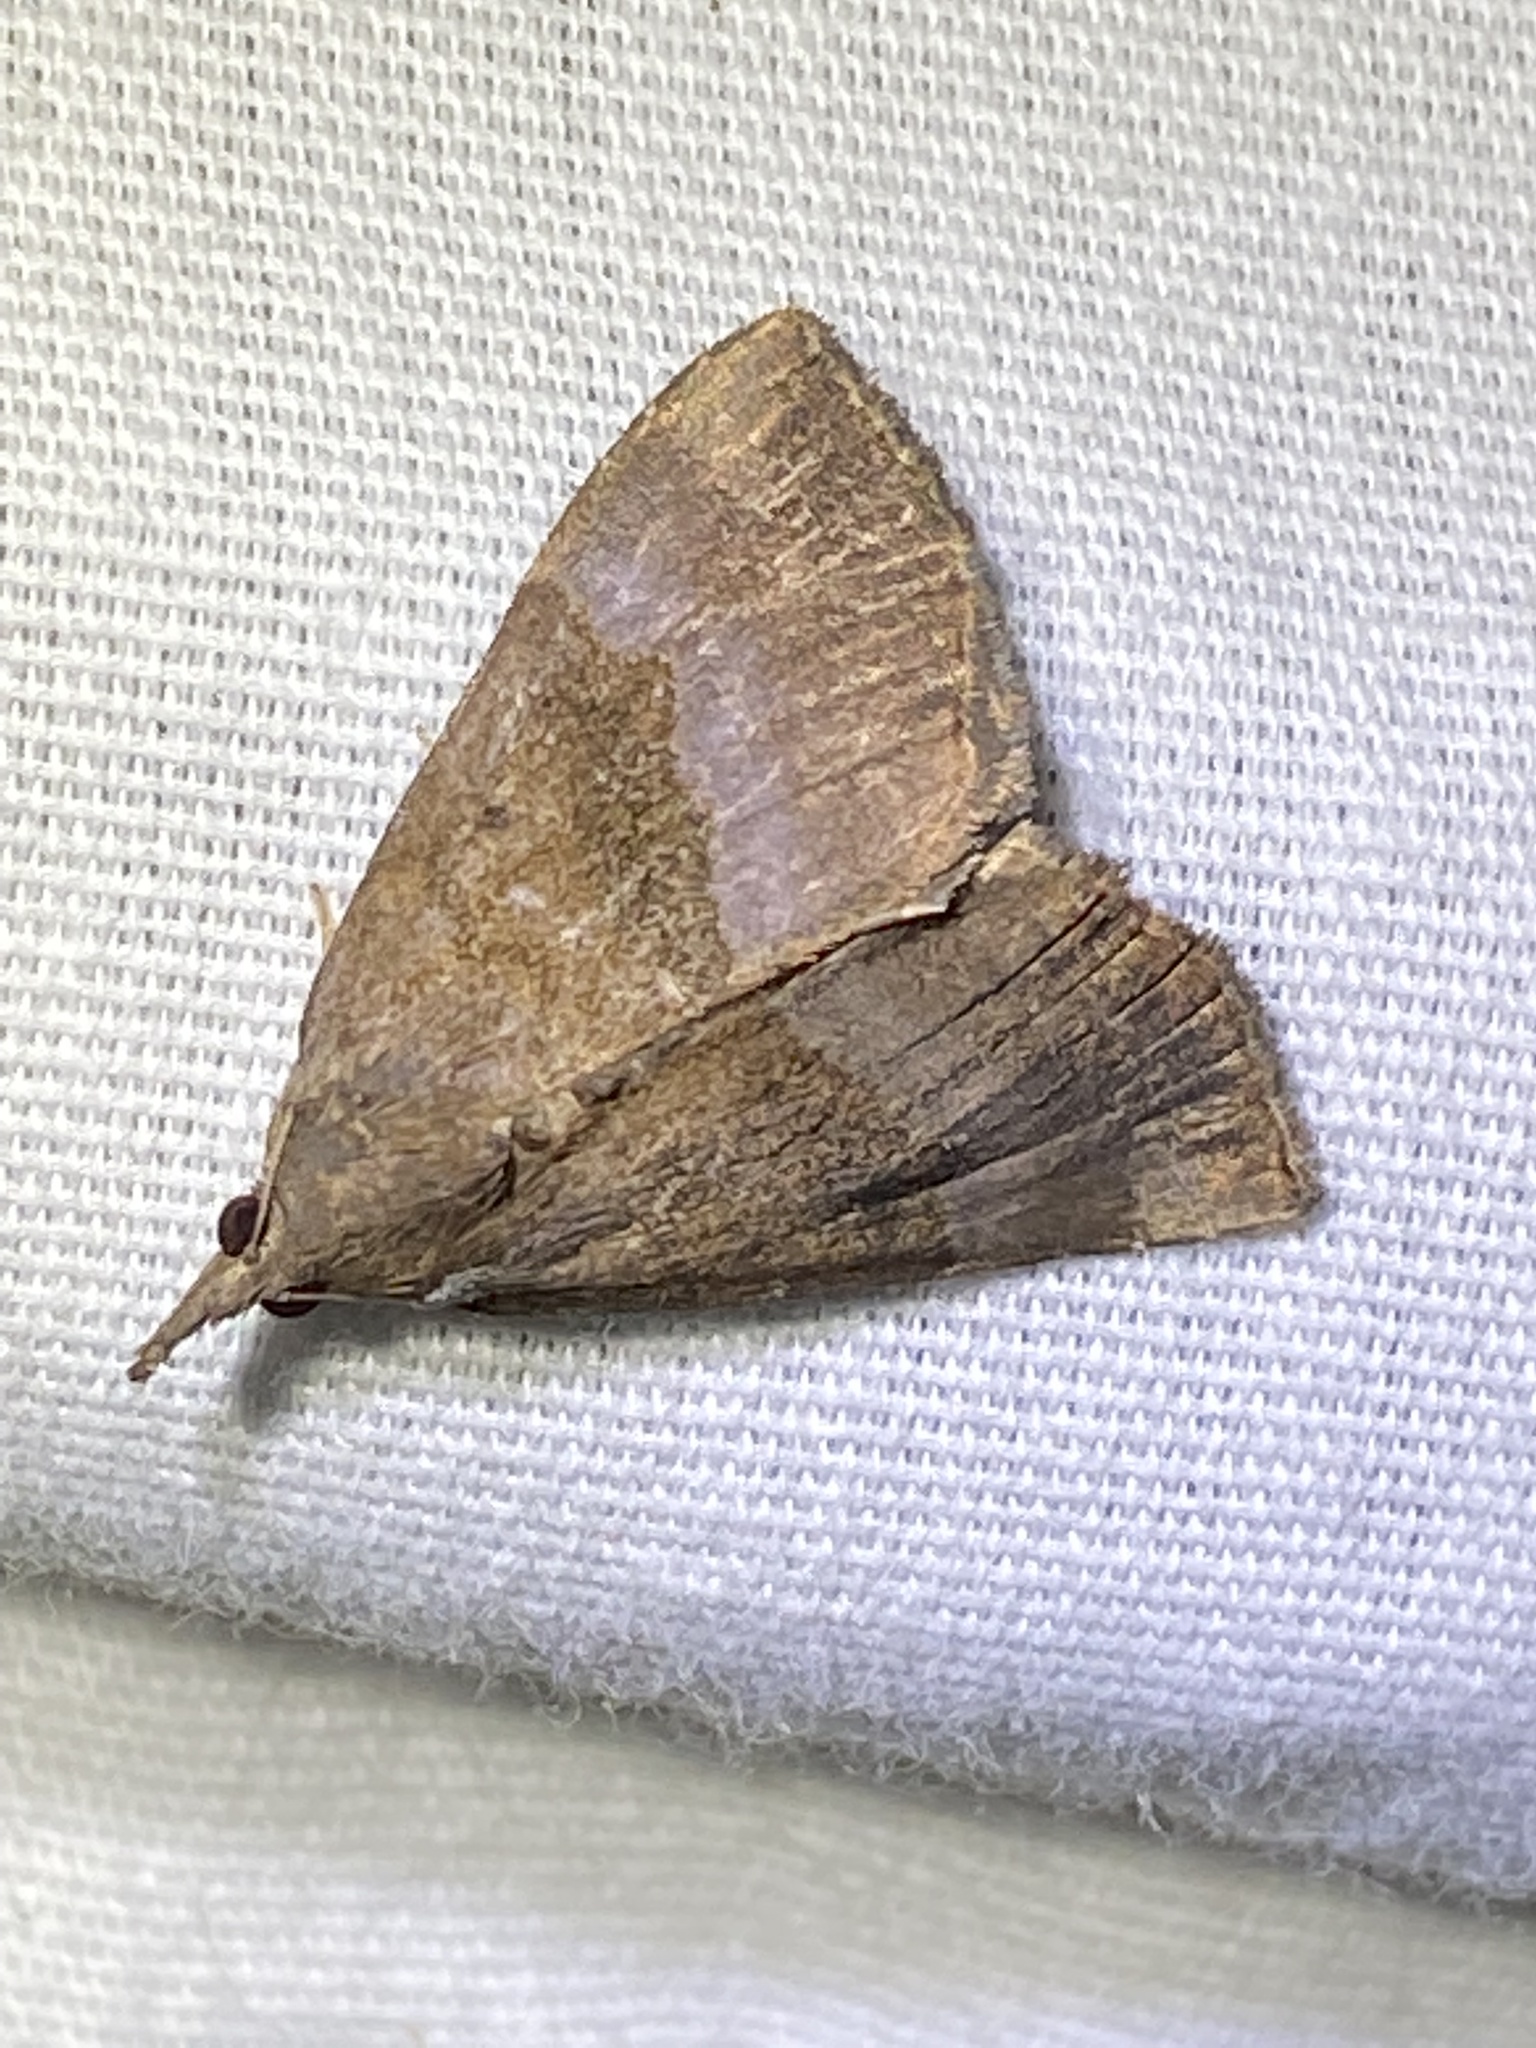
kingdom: Animalia
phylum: Arthropoda
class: Insecta
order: Lepidoptera
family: Erebidae
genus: Hypena
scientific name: Hypena madefactalis
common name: Gray-edged snout
